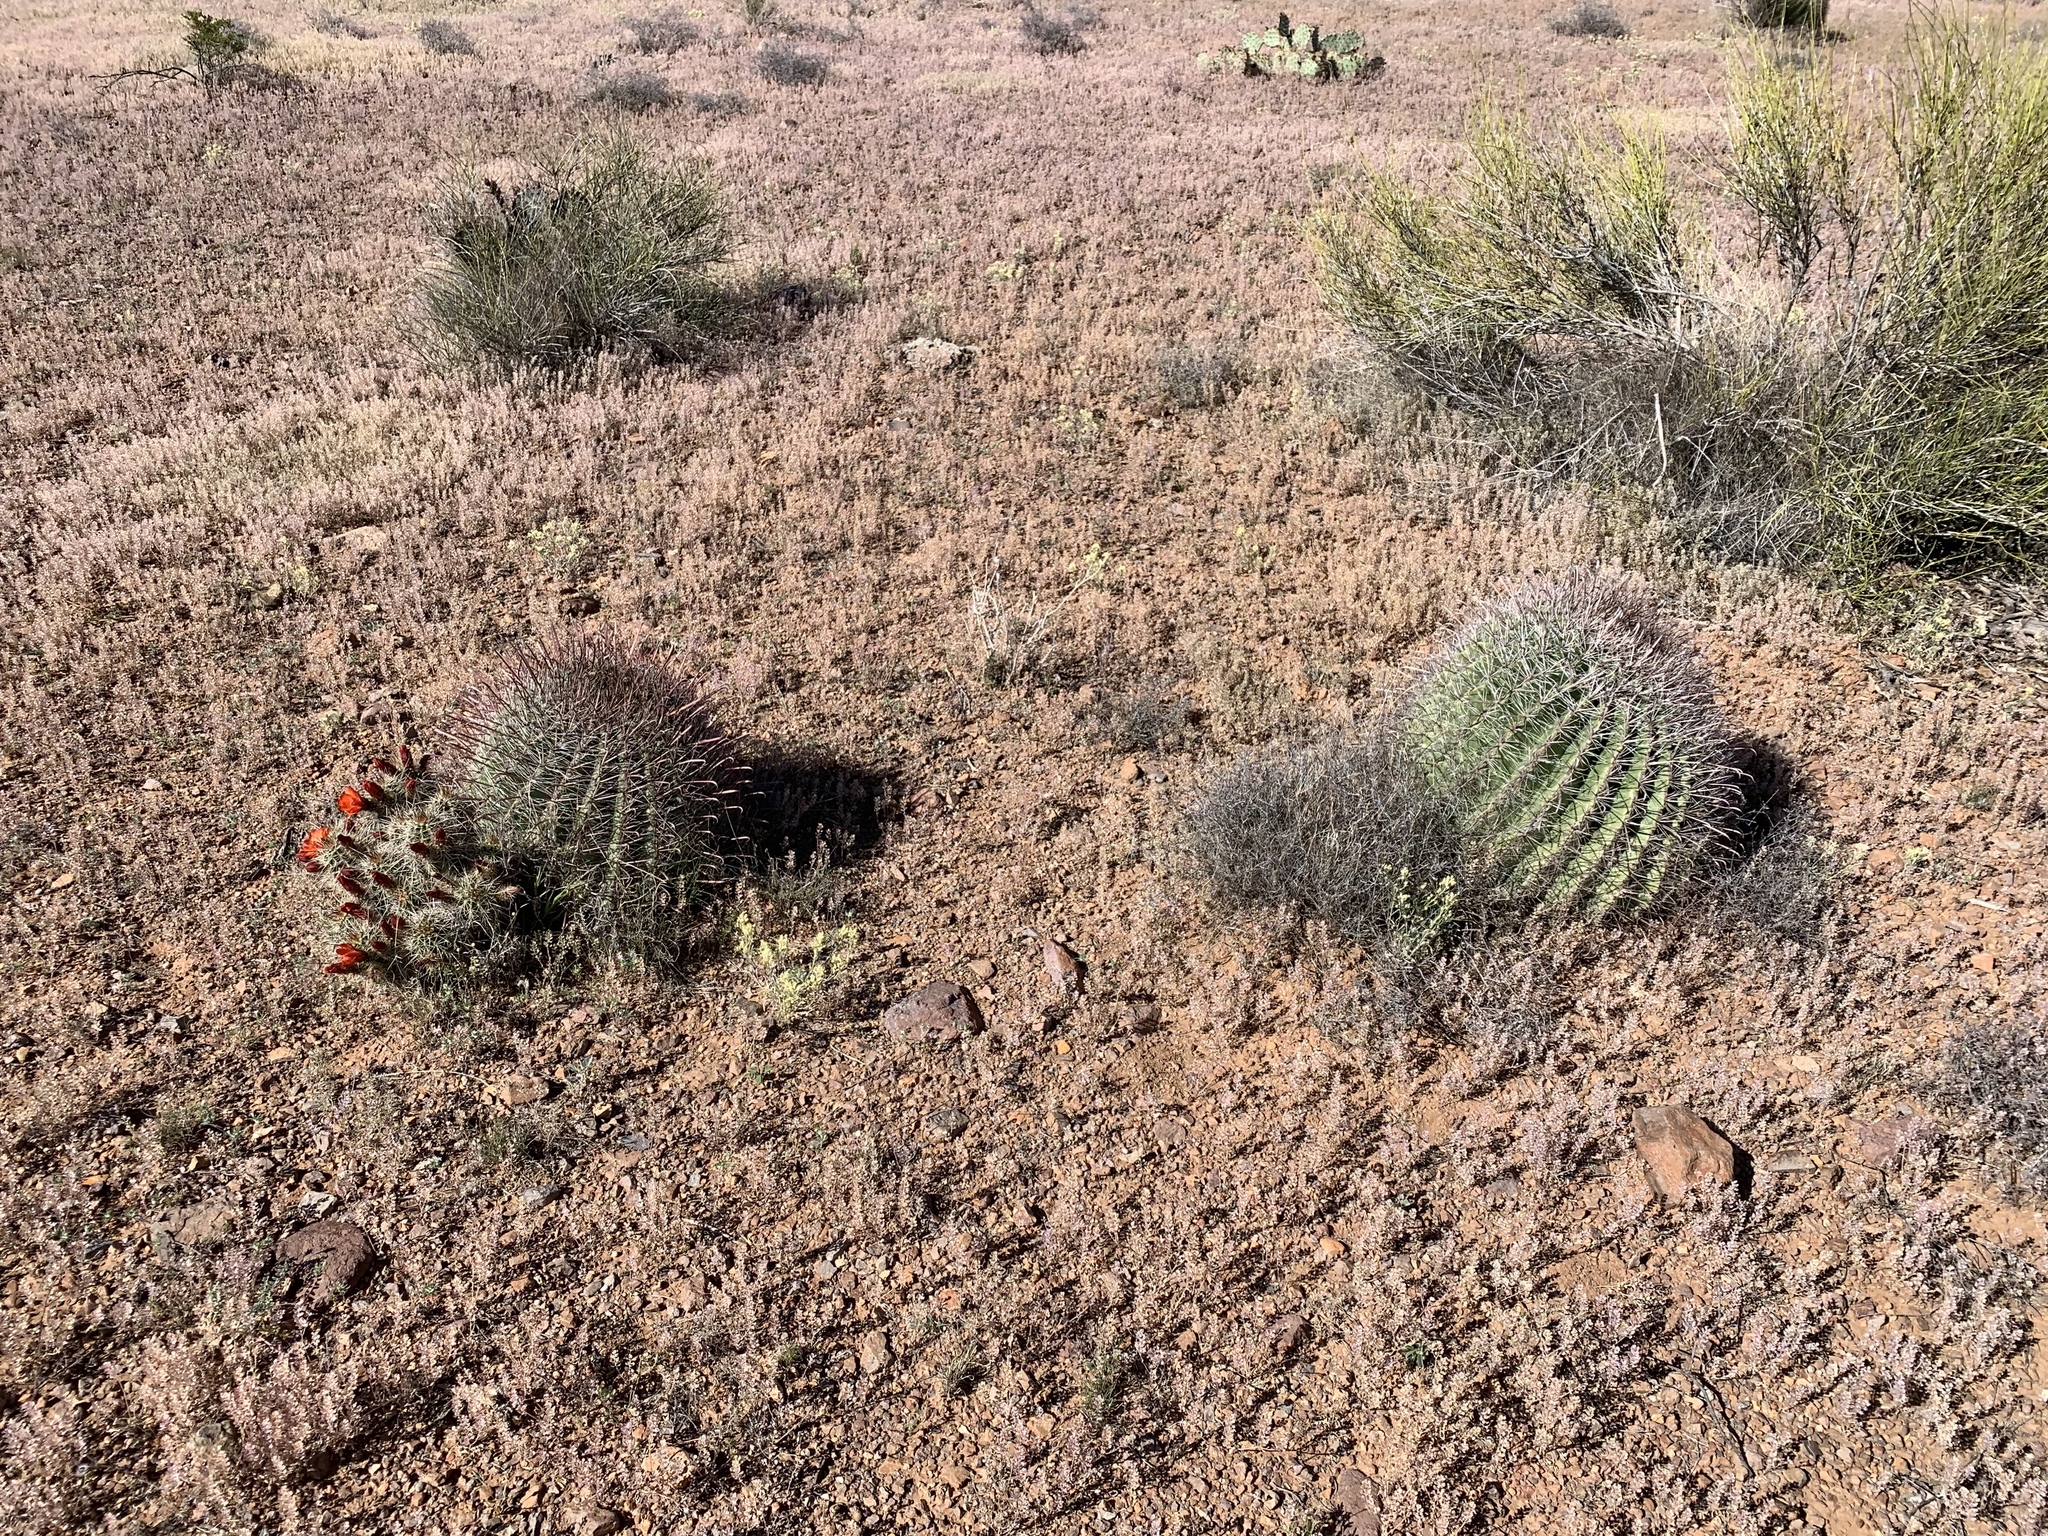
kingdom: Plantae
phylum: Tracheophyta
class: Magnoliopsida
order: Caryophyllales
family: Cactaceae
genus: Ferocactus
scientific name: Ferocactus wislizeni
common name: Candy barrel cactus
